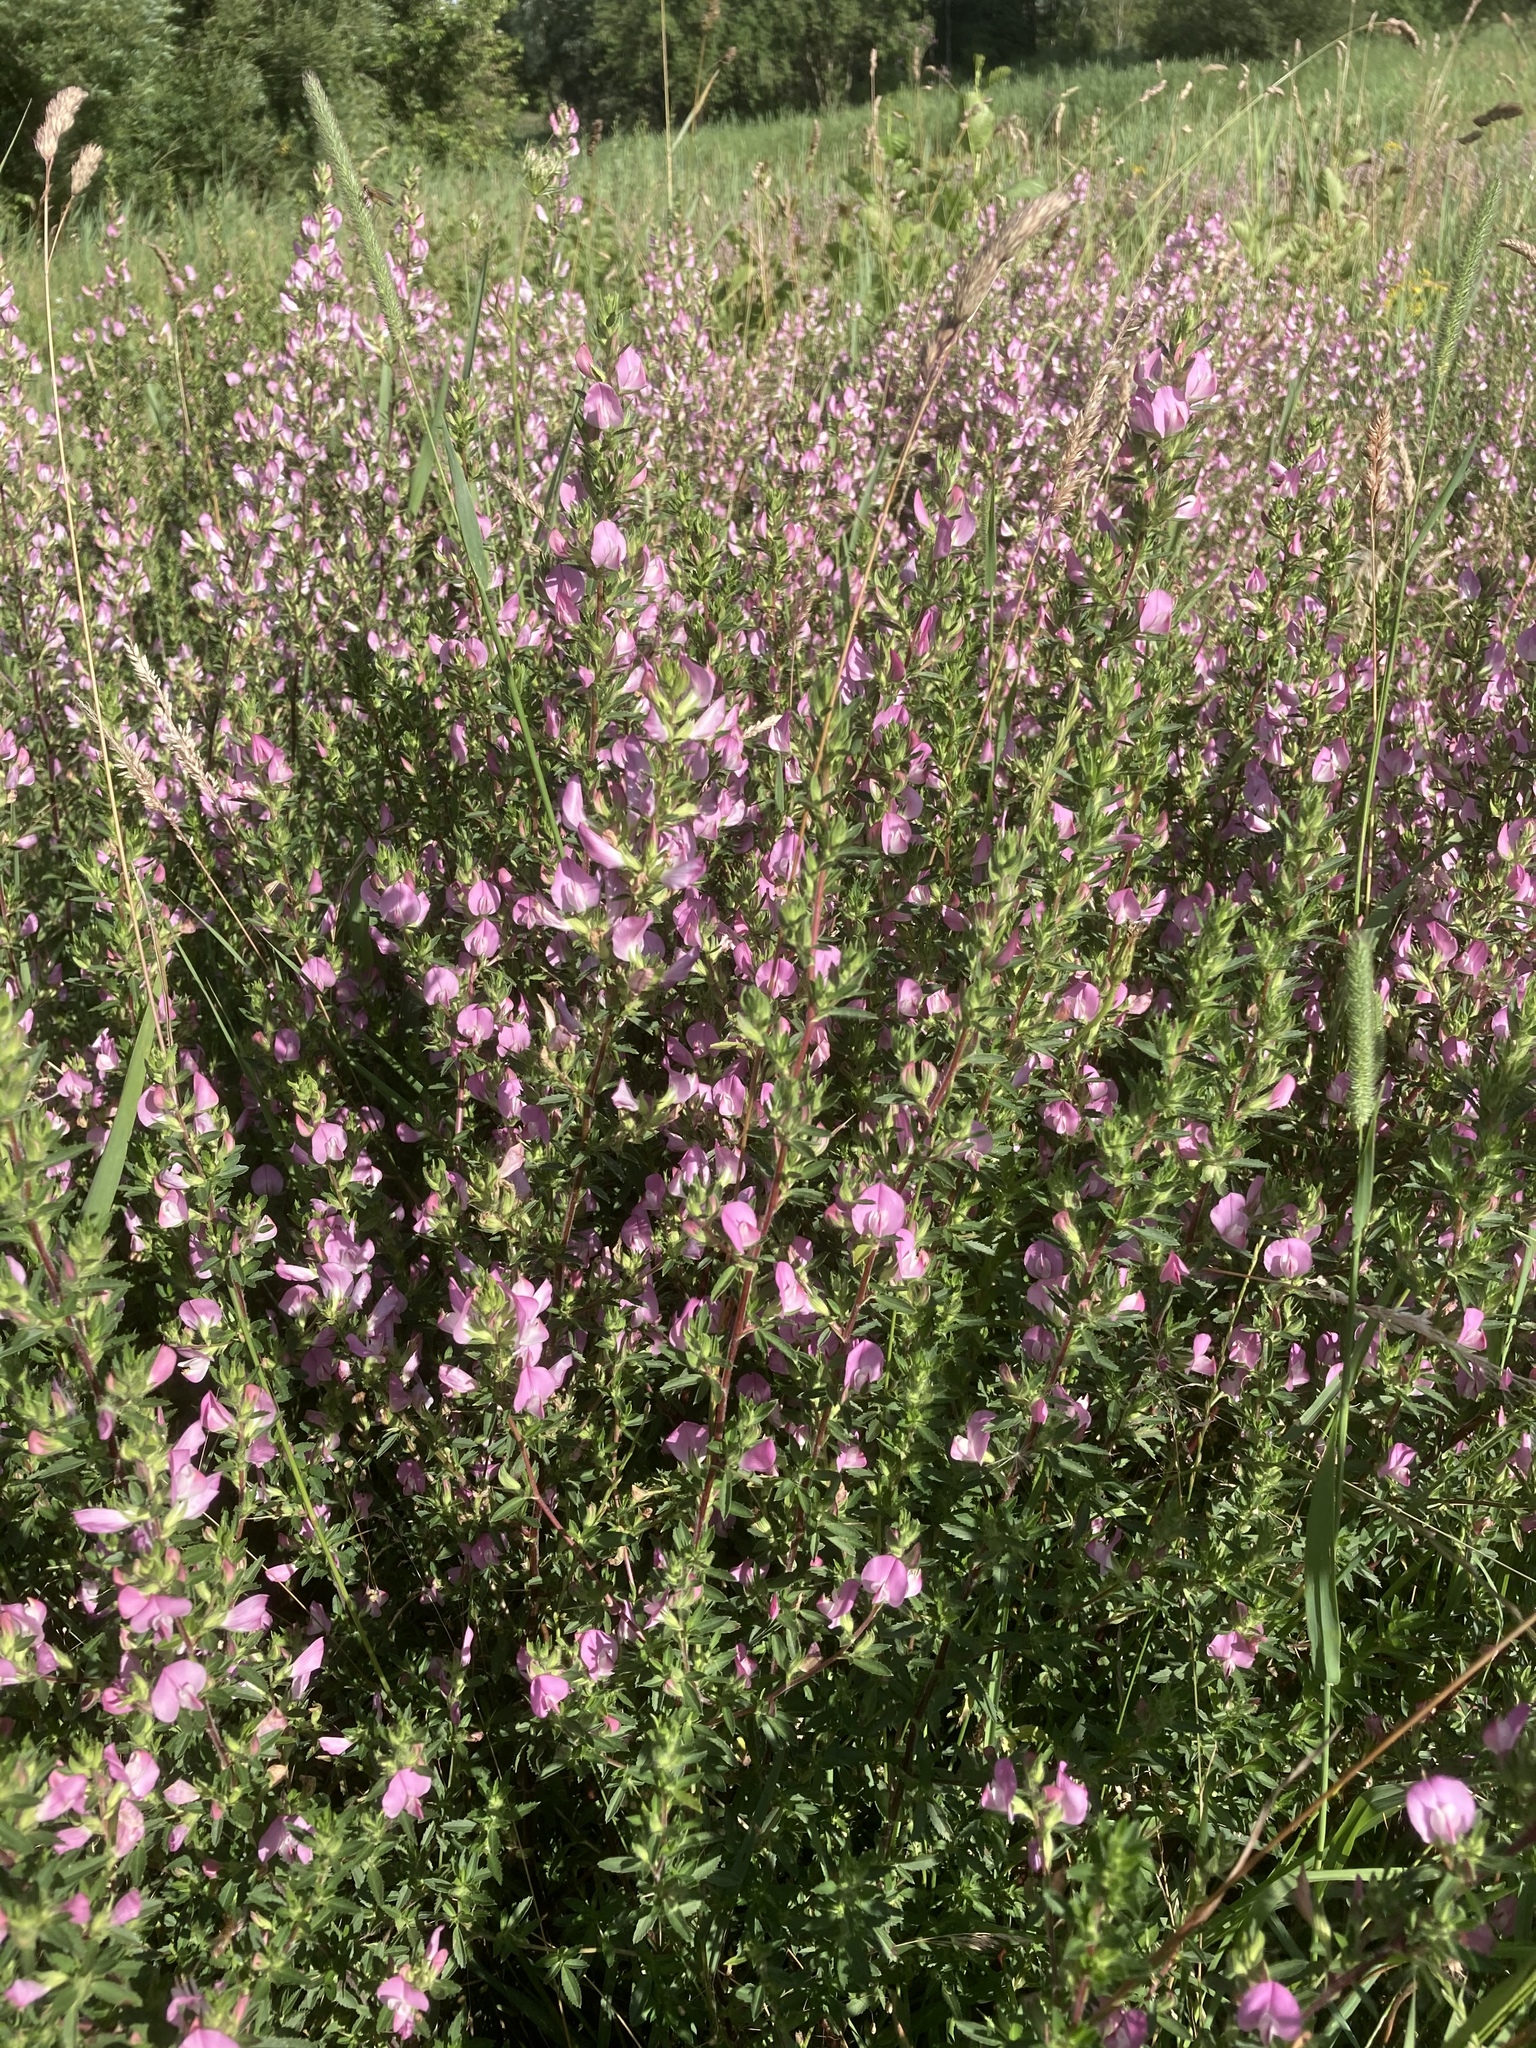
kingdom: Plantae
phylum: Tracheophyta
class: Magnoliopsida
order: Fabales
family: Fabaceae
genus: Ononis
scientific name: Ononis spinosa
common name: Spiny restharrow
